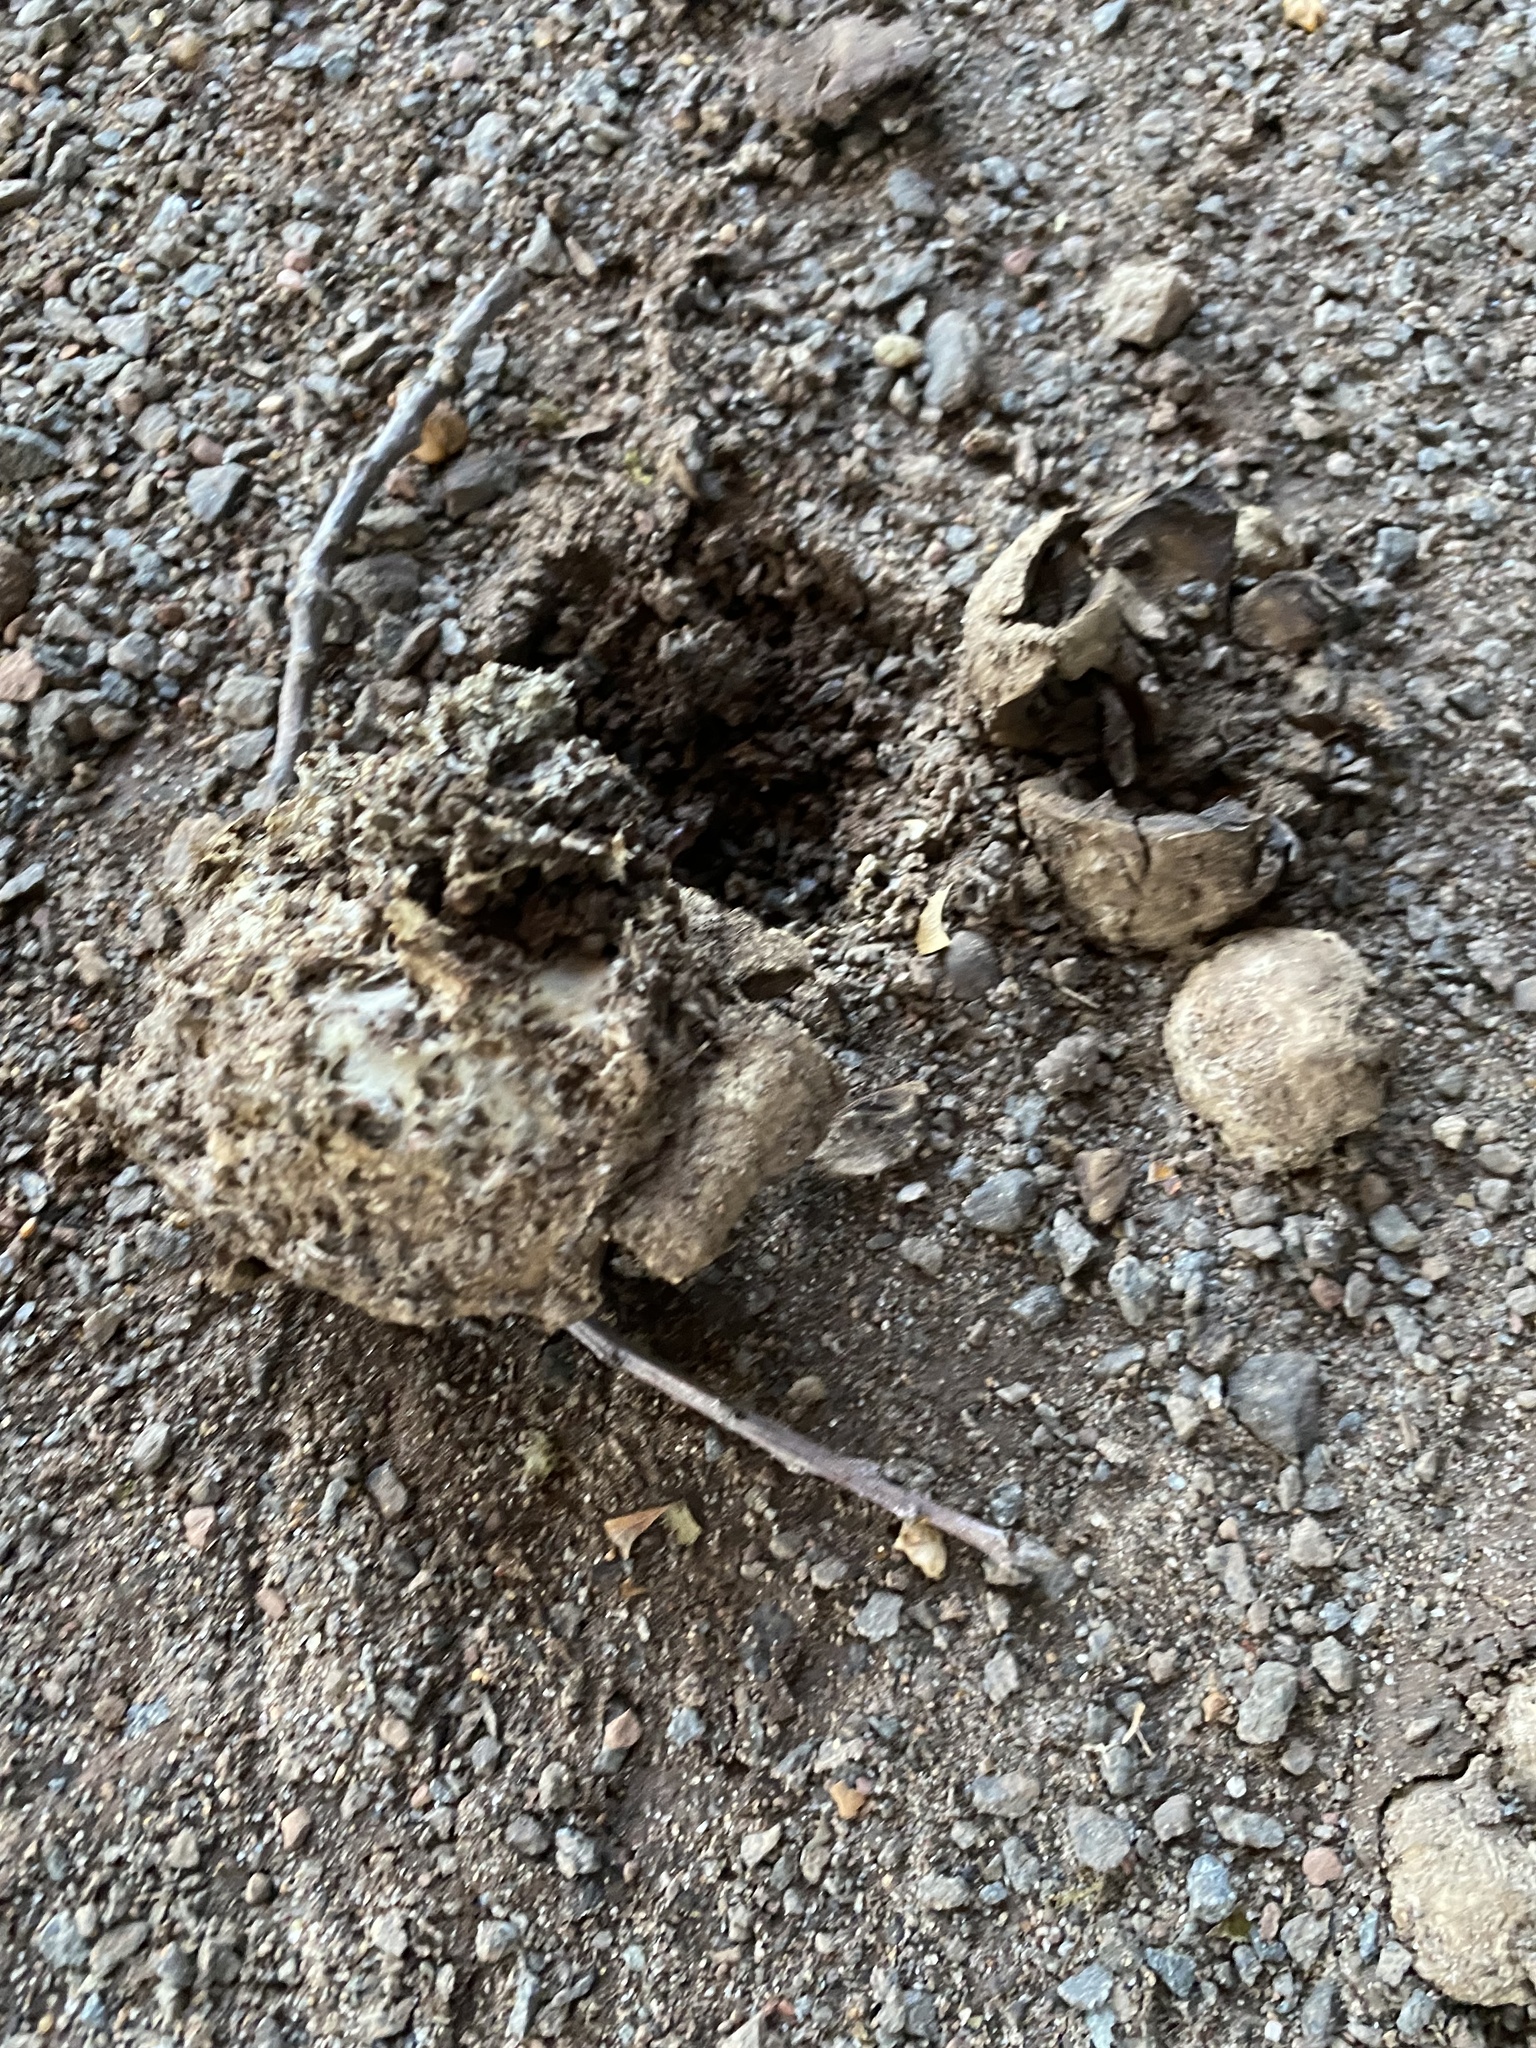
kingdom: Fungi
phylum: Basidiomycota
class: Agaricomycetes
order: Boletales
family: Sclerodermataceae
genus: Scleroderma
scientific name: Scleroderma polyrhizum
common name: Many-rooted earthball
